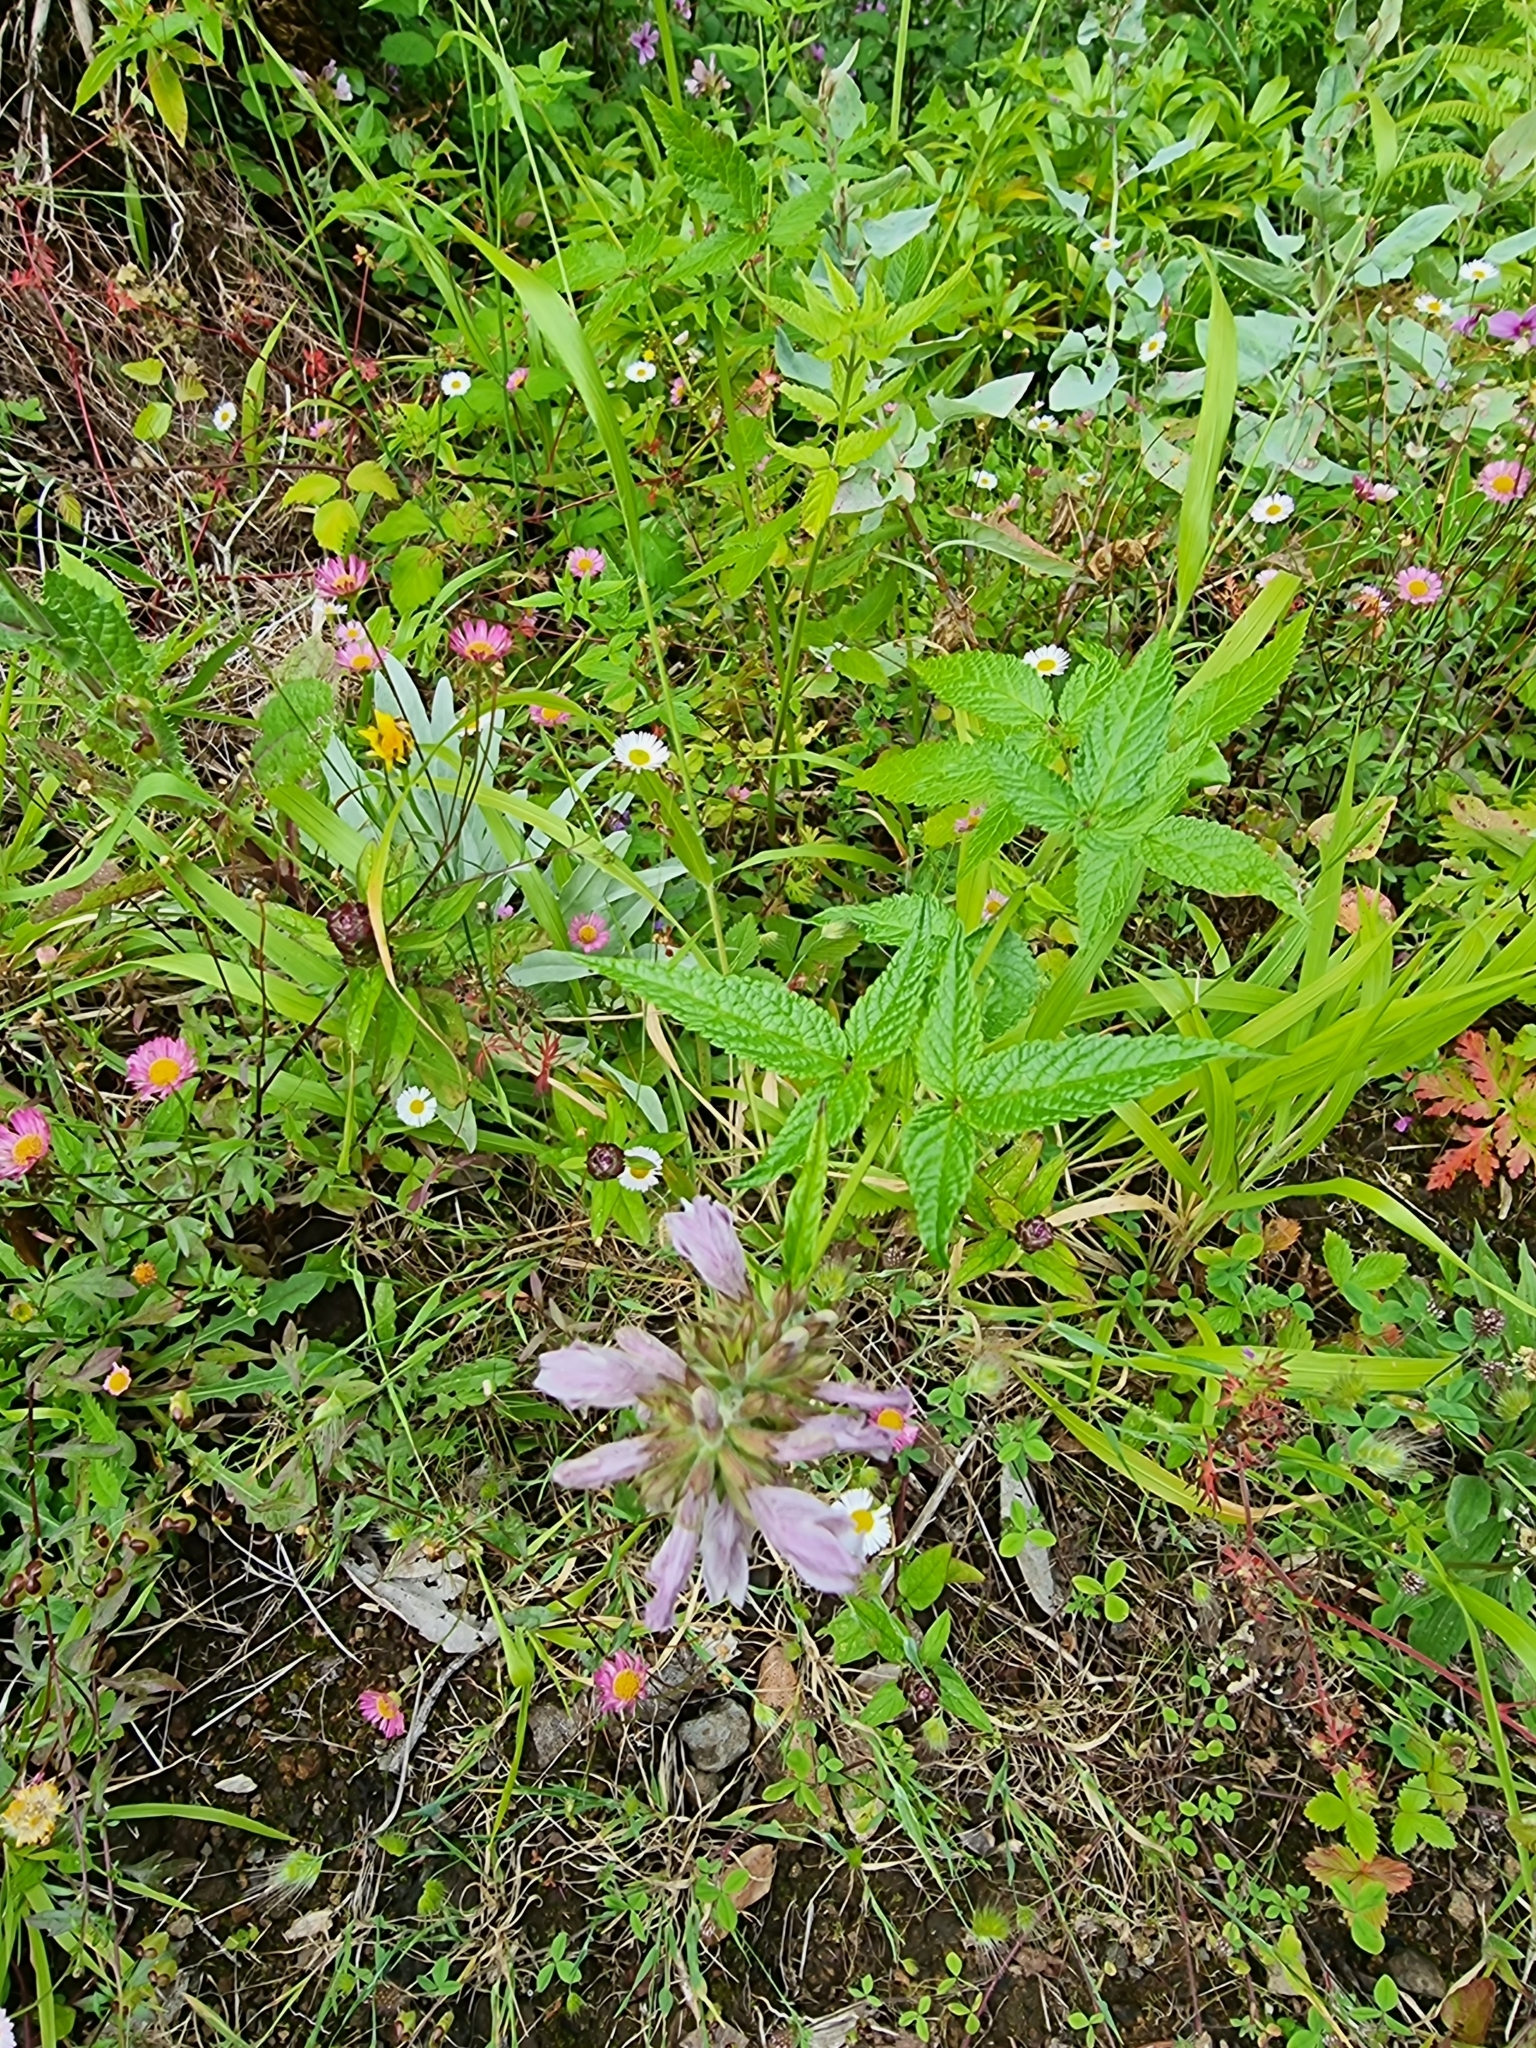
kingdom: Plantae
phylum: Tracheophyta
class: Magnoliopsida
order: Lamiales
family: Lamiaceae
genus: Cedronella
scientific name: Cedronella canariensis
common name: Canary islands balm
